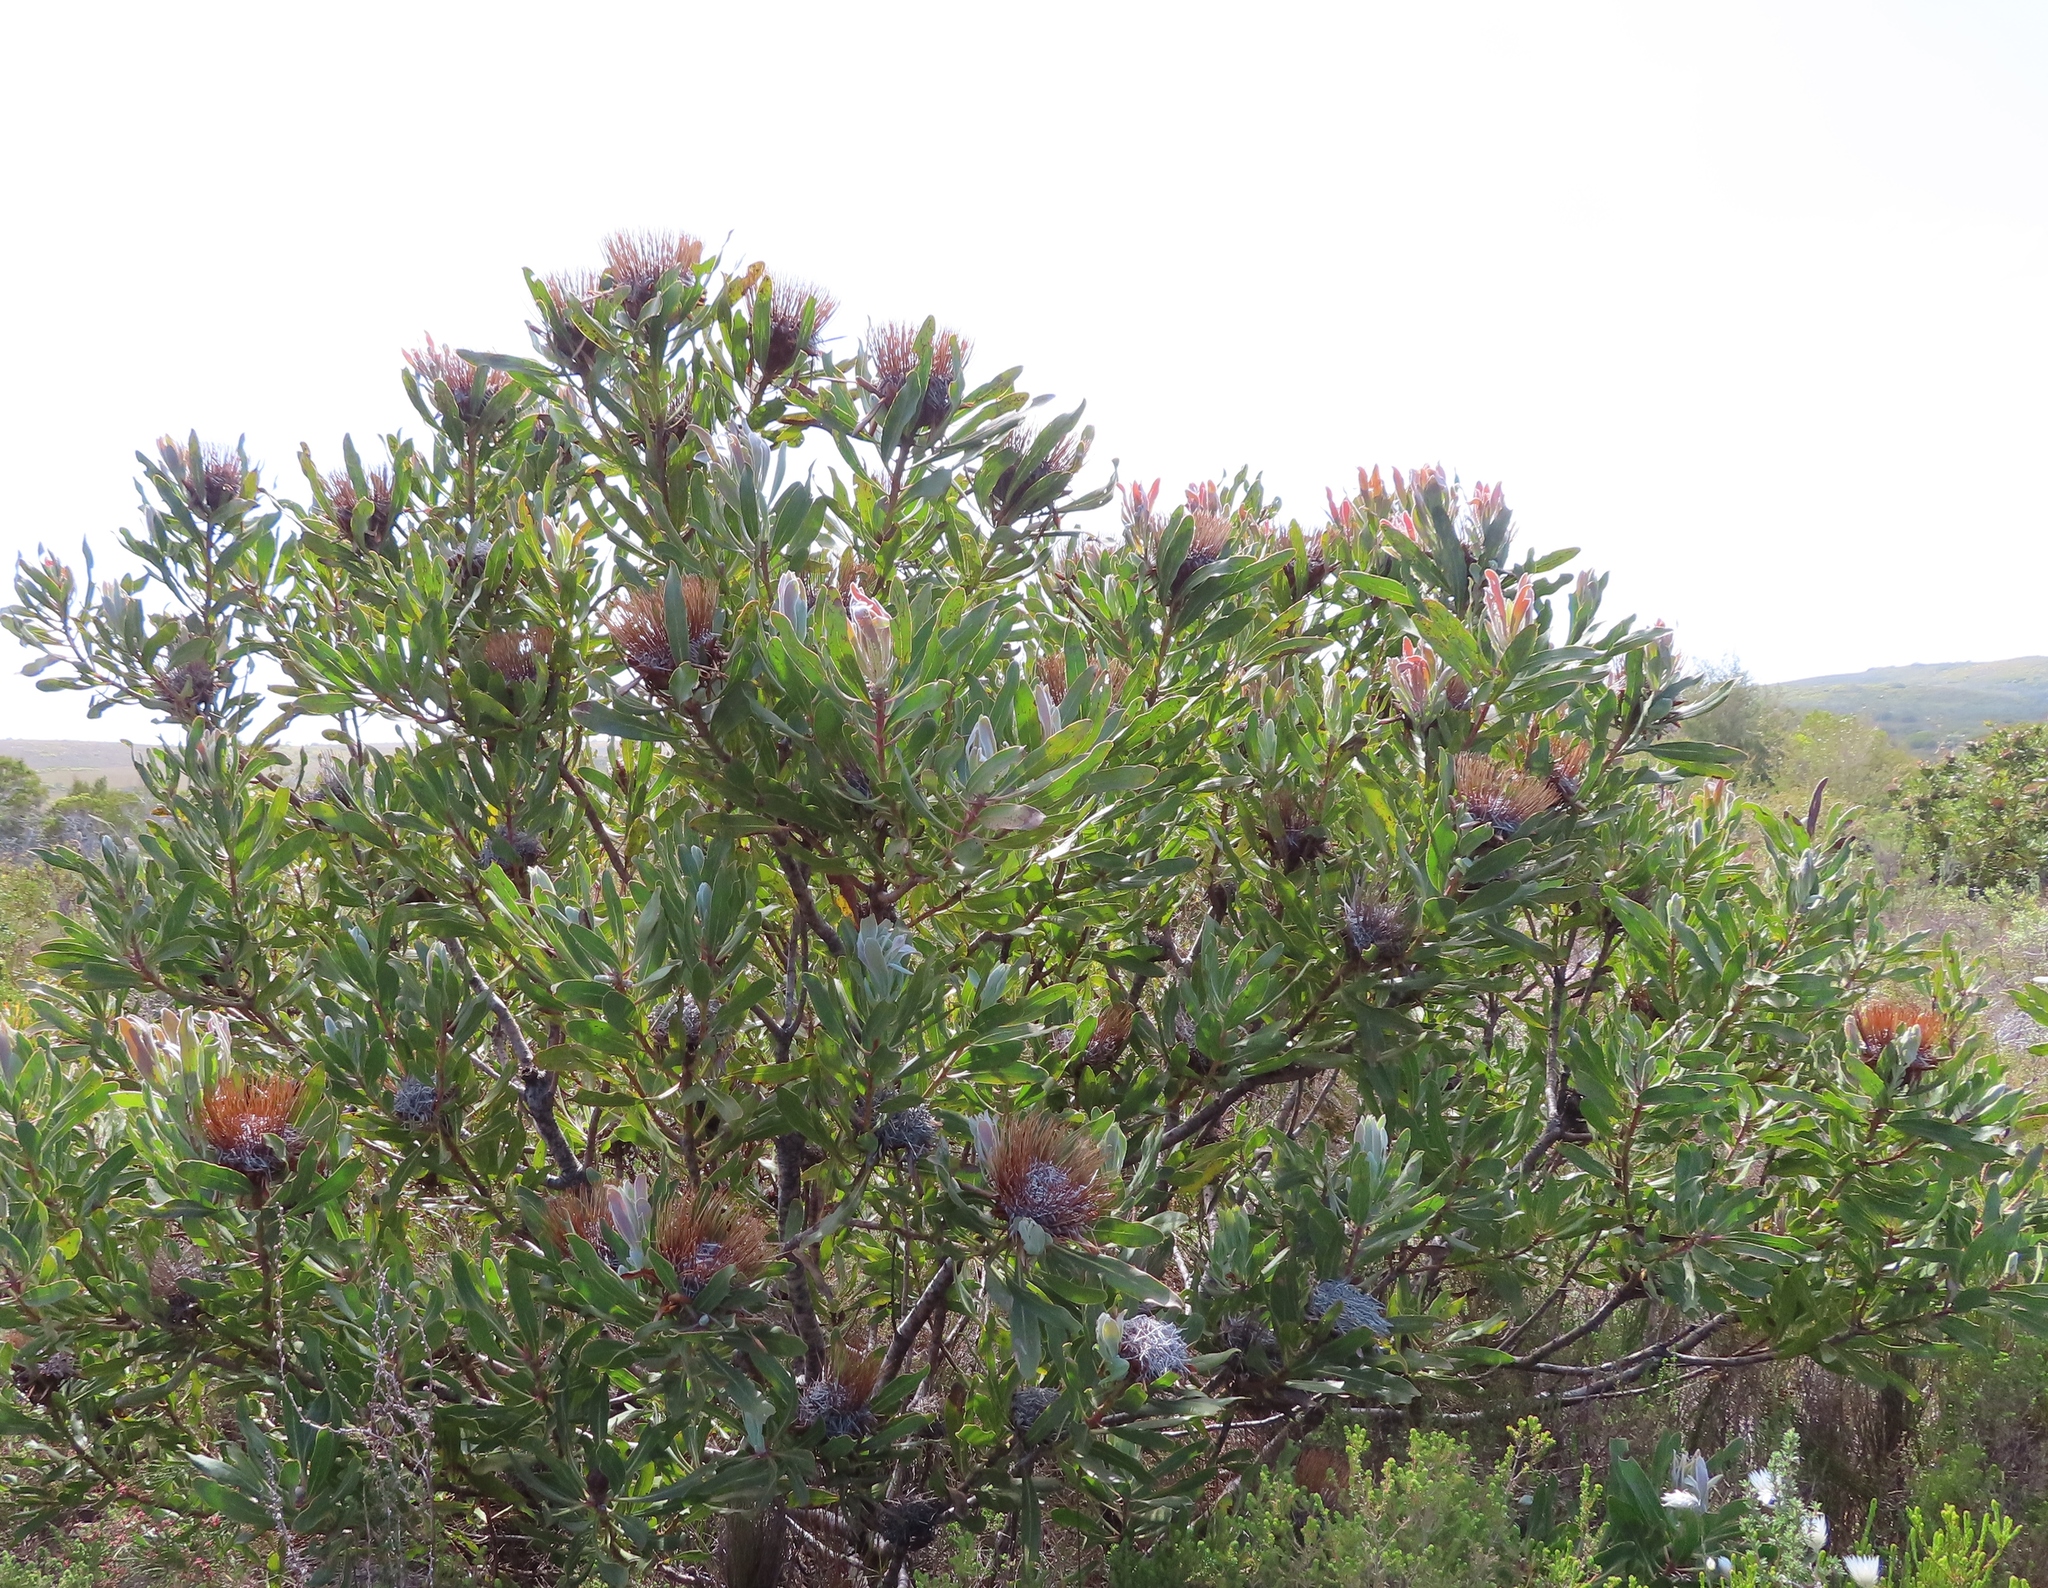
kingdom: Plantae
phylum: Tracheophyta
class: Magnoliopsida
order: Proteales
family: Proteaceae
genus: Protea
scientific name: Protea susannae
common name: Foetid-leaf sugarbush
